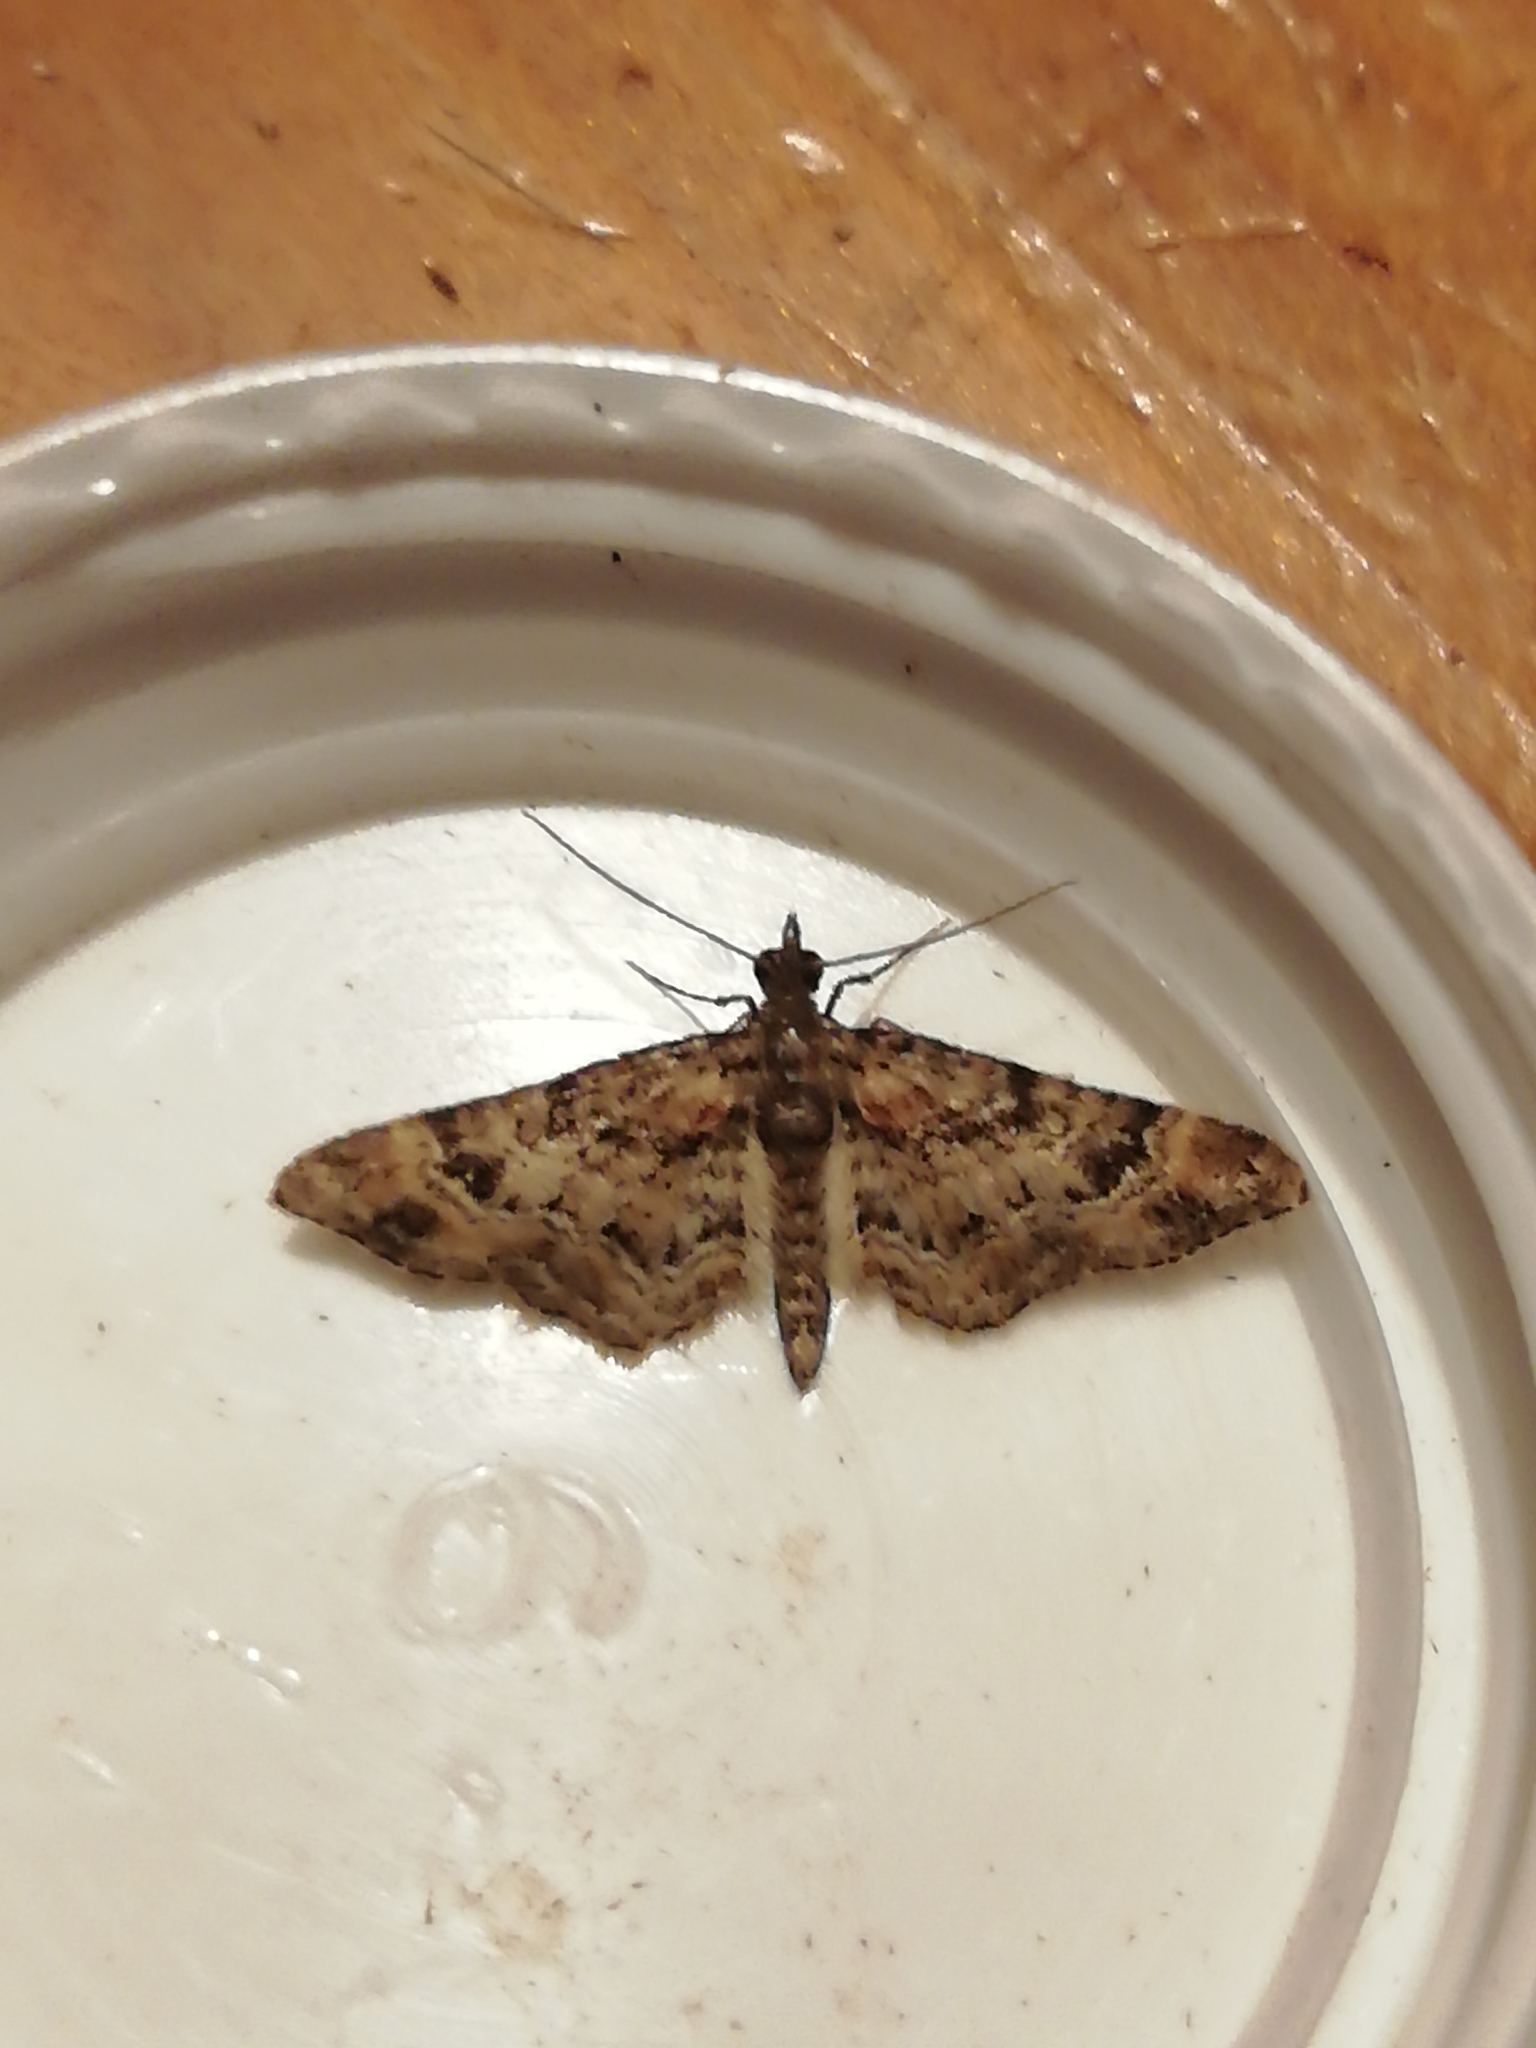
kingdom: Animalia
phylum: Arthropoda
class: Insecta
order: Lepidoptera
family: Geometridae
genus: Gymnoscelis
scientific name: Gymnoscelis rufifasciata
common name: Double-striped pug
